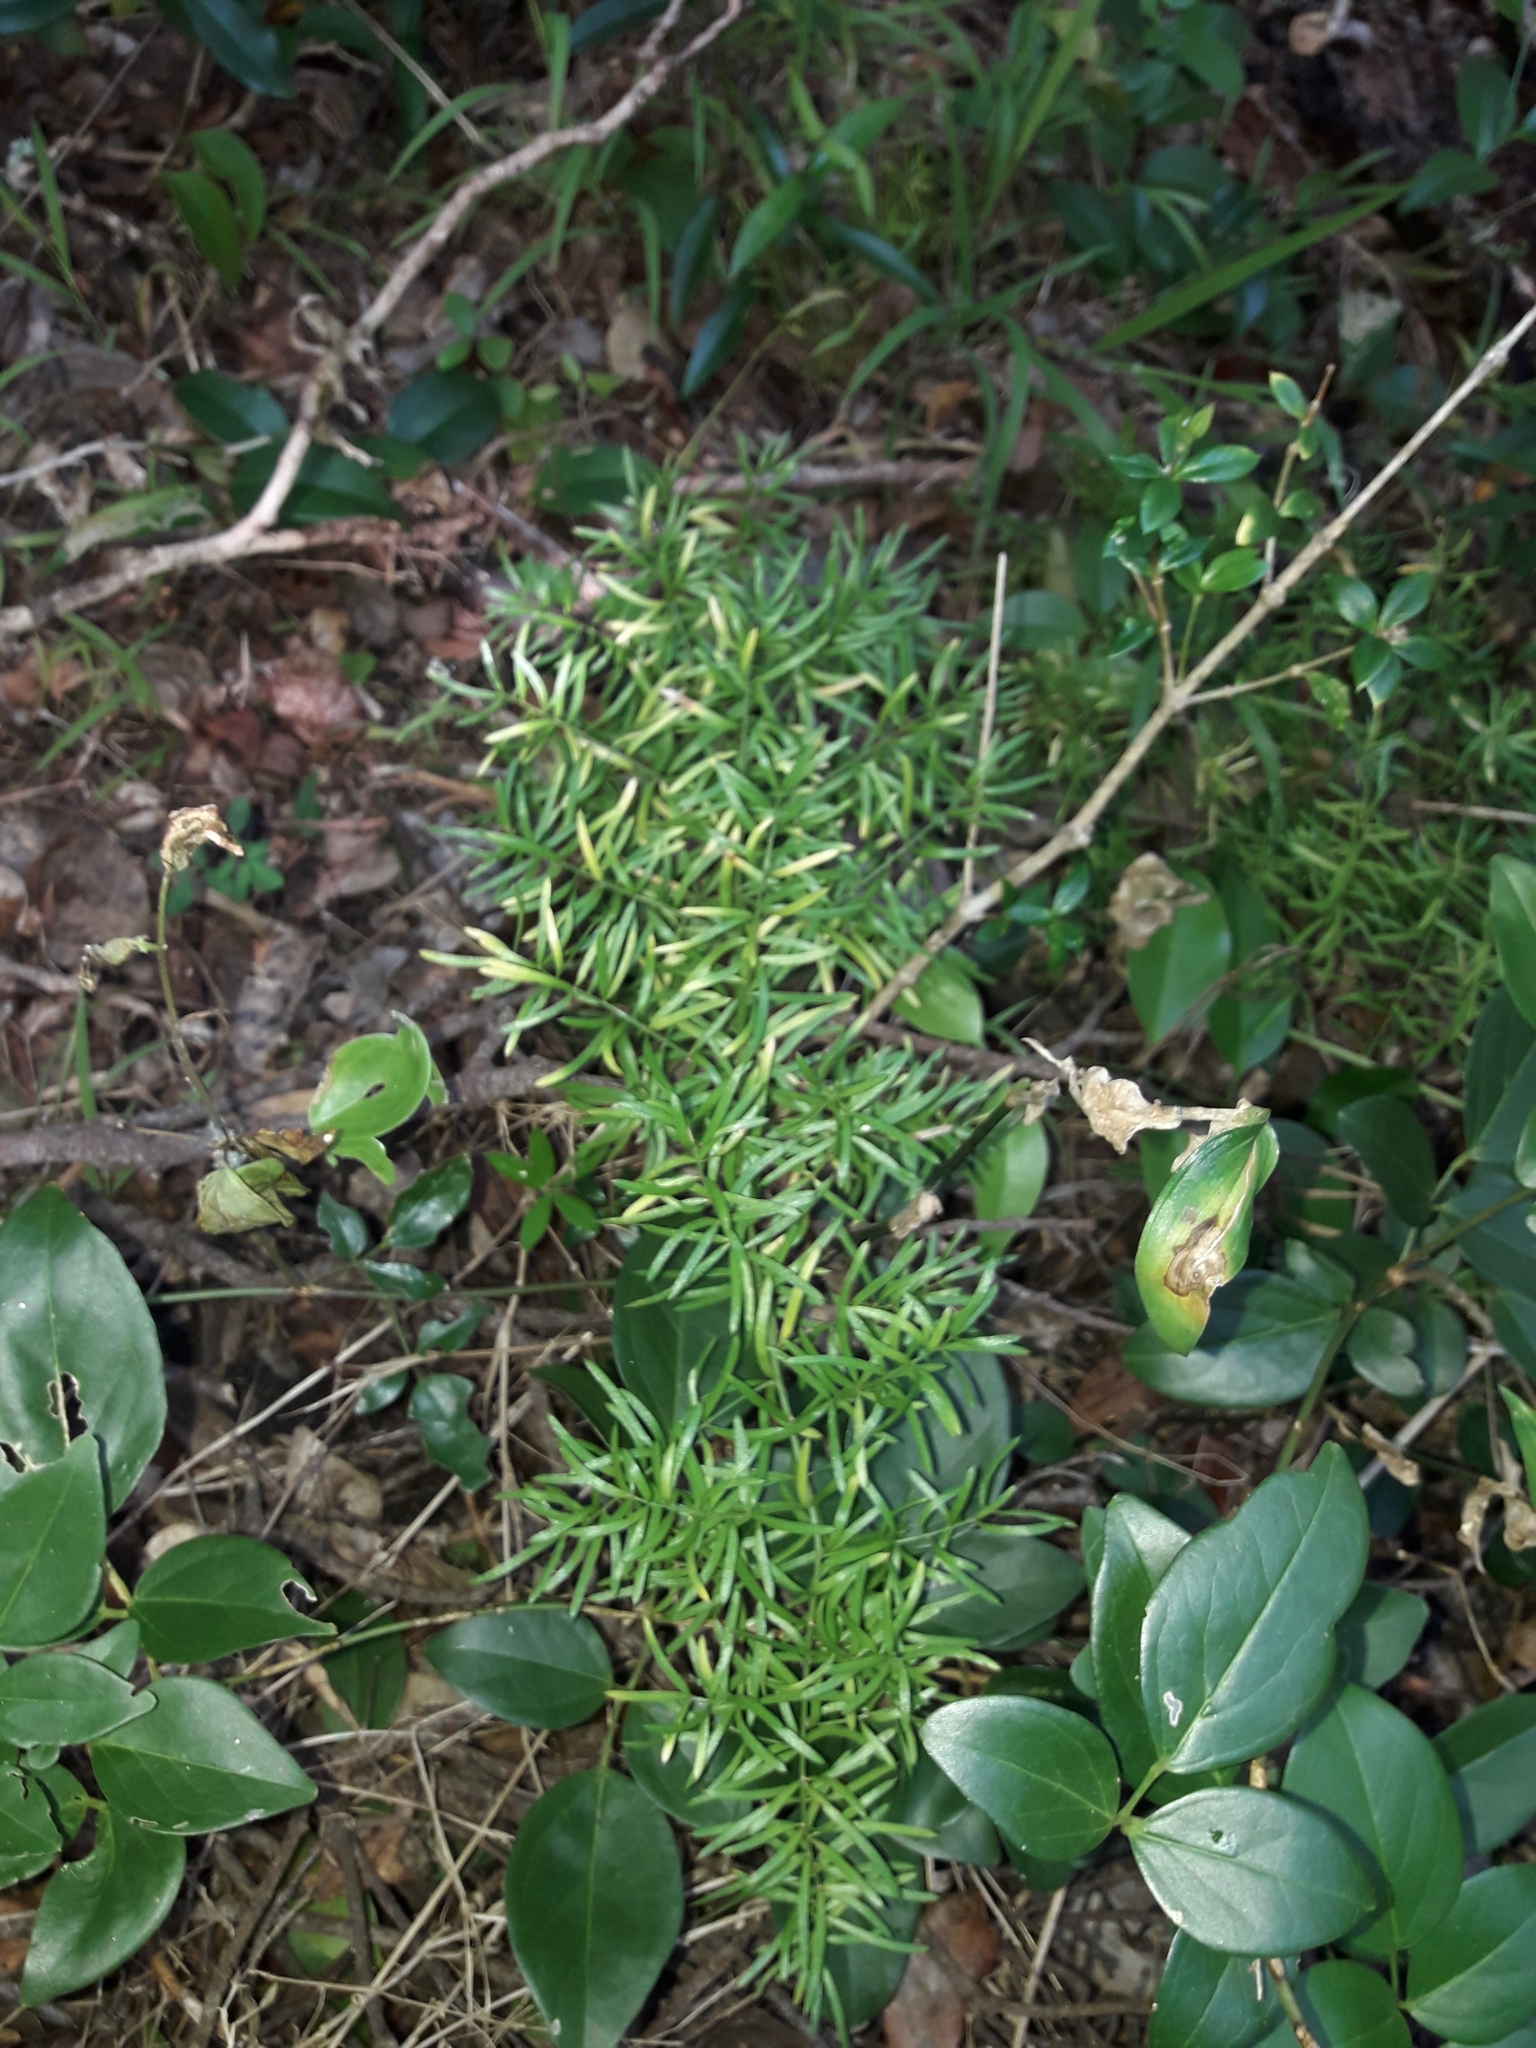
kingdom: Plantae
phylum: Tracheophyta
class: Liliopsida
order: Asparagales
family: Asparagaceae
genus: Asparagus
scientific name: Asparagus aethiopicus
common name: Sprenger's asparagus fern
